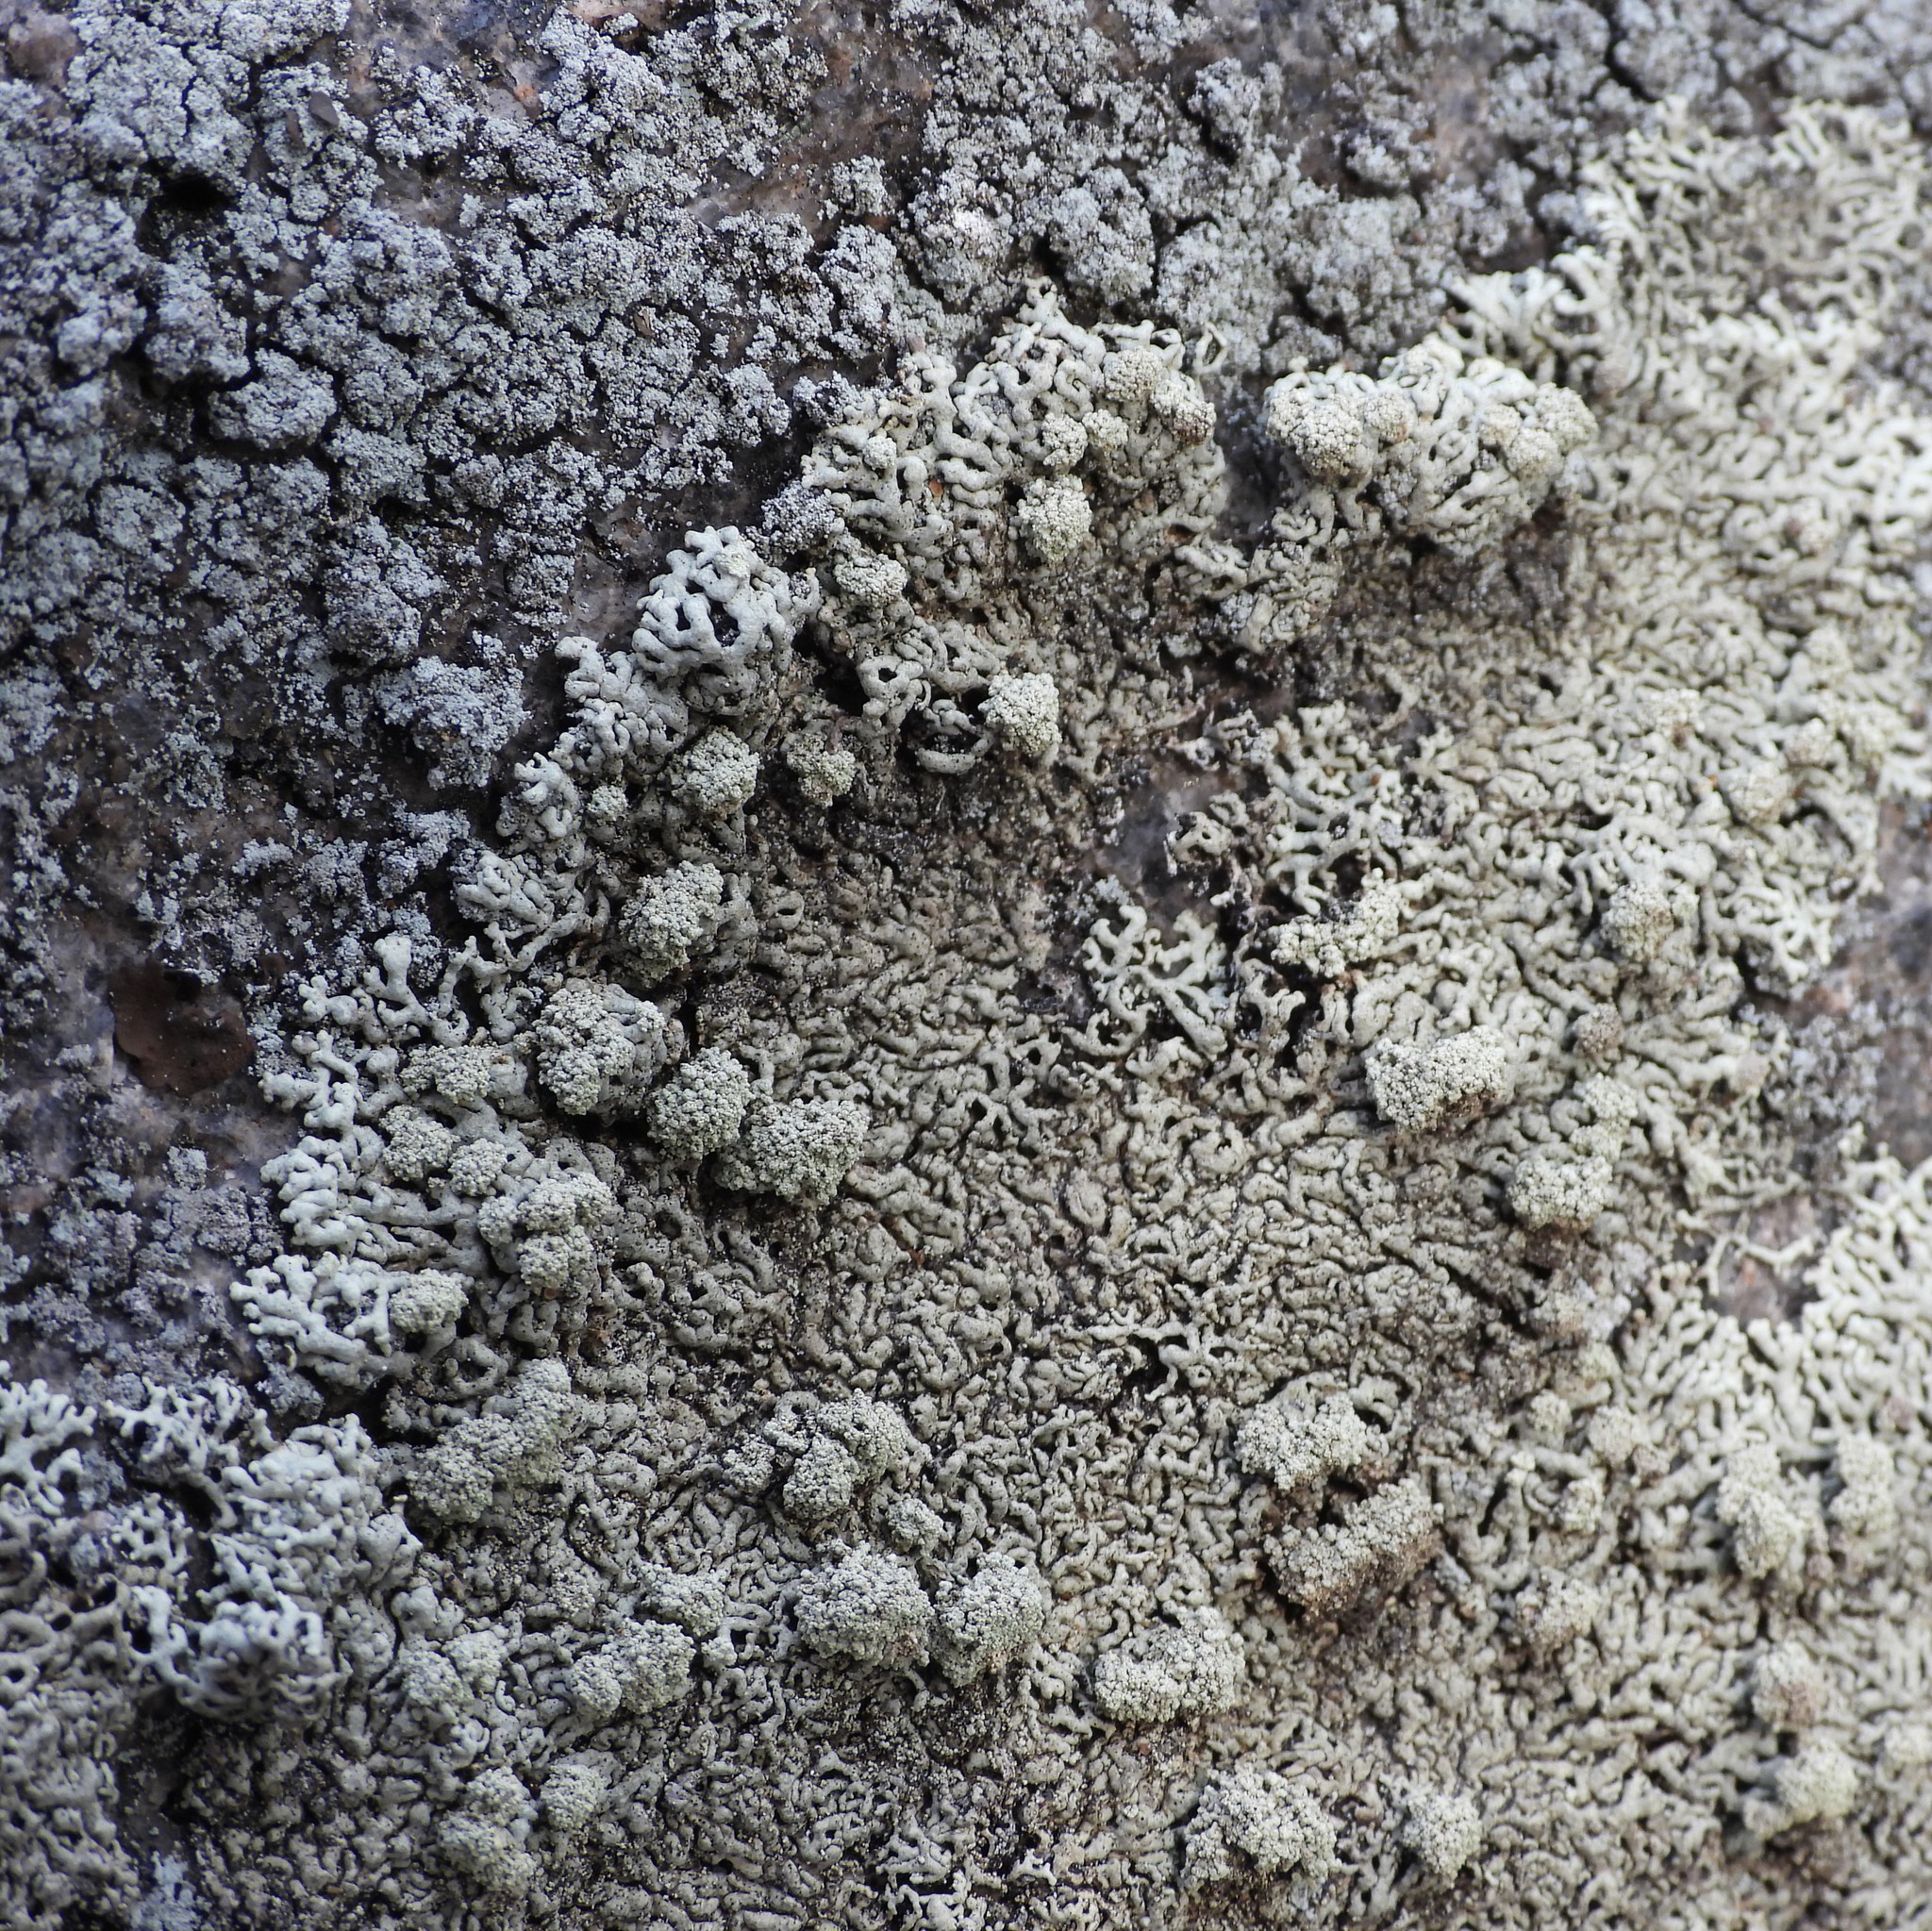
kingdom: Fungi
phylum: Ascomycota
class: Lecanoromycetes
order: Lecanorales
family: Parmeliaceae
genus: Arctoparmelia
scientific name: Arctoparmelia incurva
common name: Bent ring lichen
